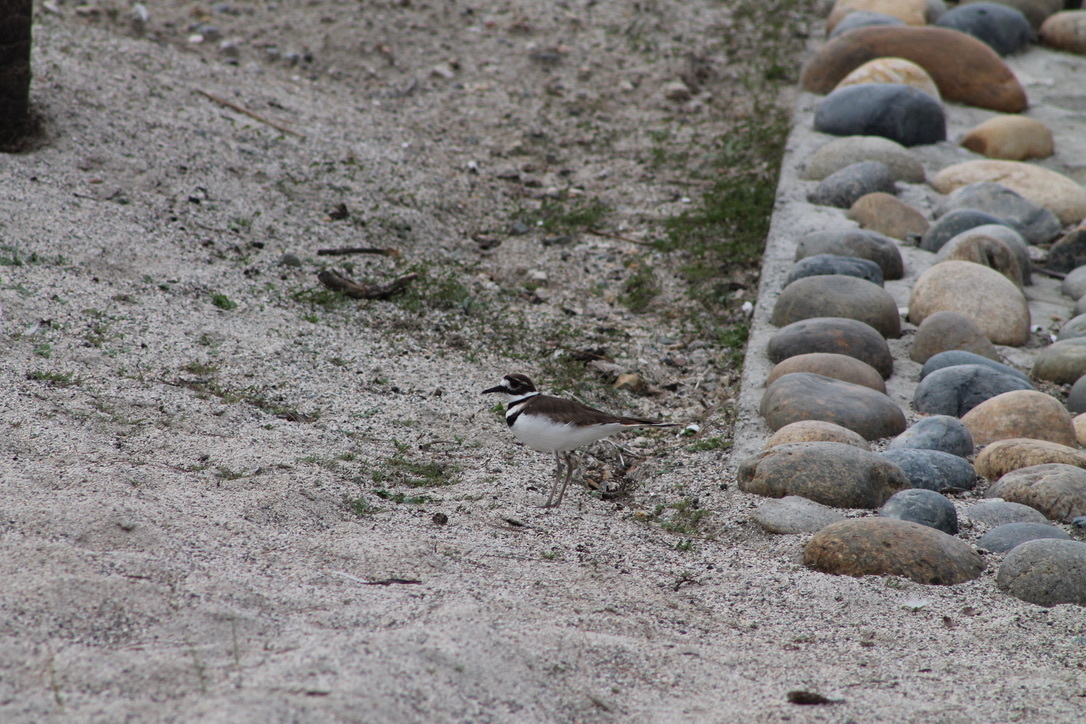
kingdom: Animalia
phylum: Chordata
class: Aves
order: Charadriiformes
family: Charadriidae
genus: Charadrius
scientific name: Charadrius vociferus
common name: Killdeer
